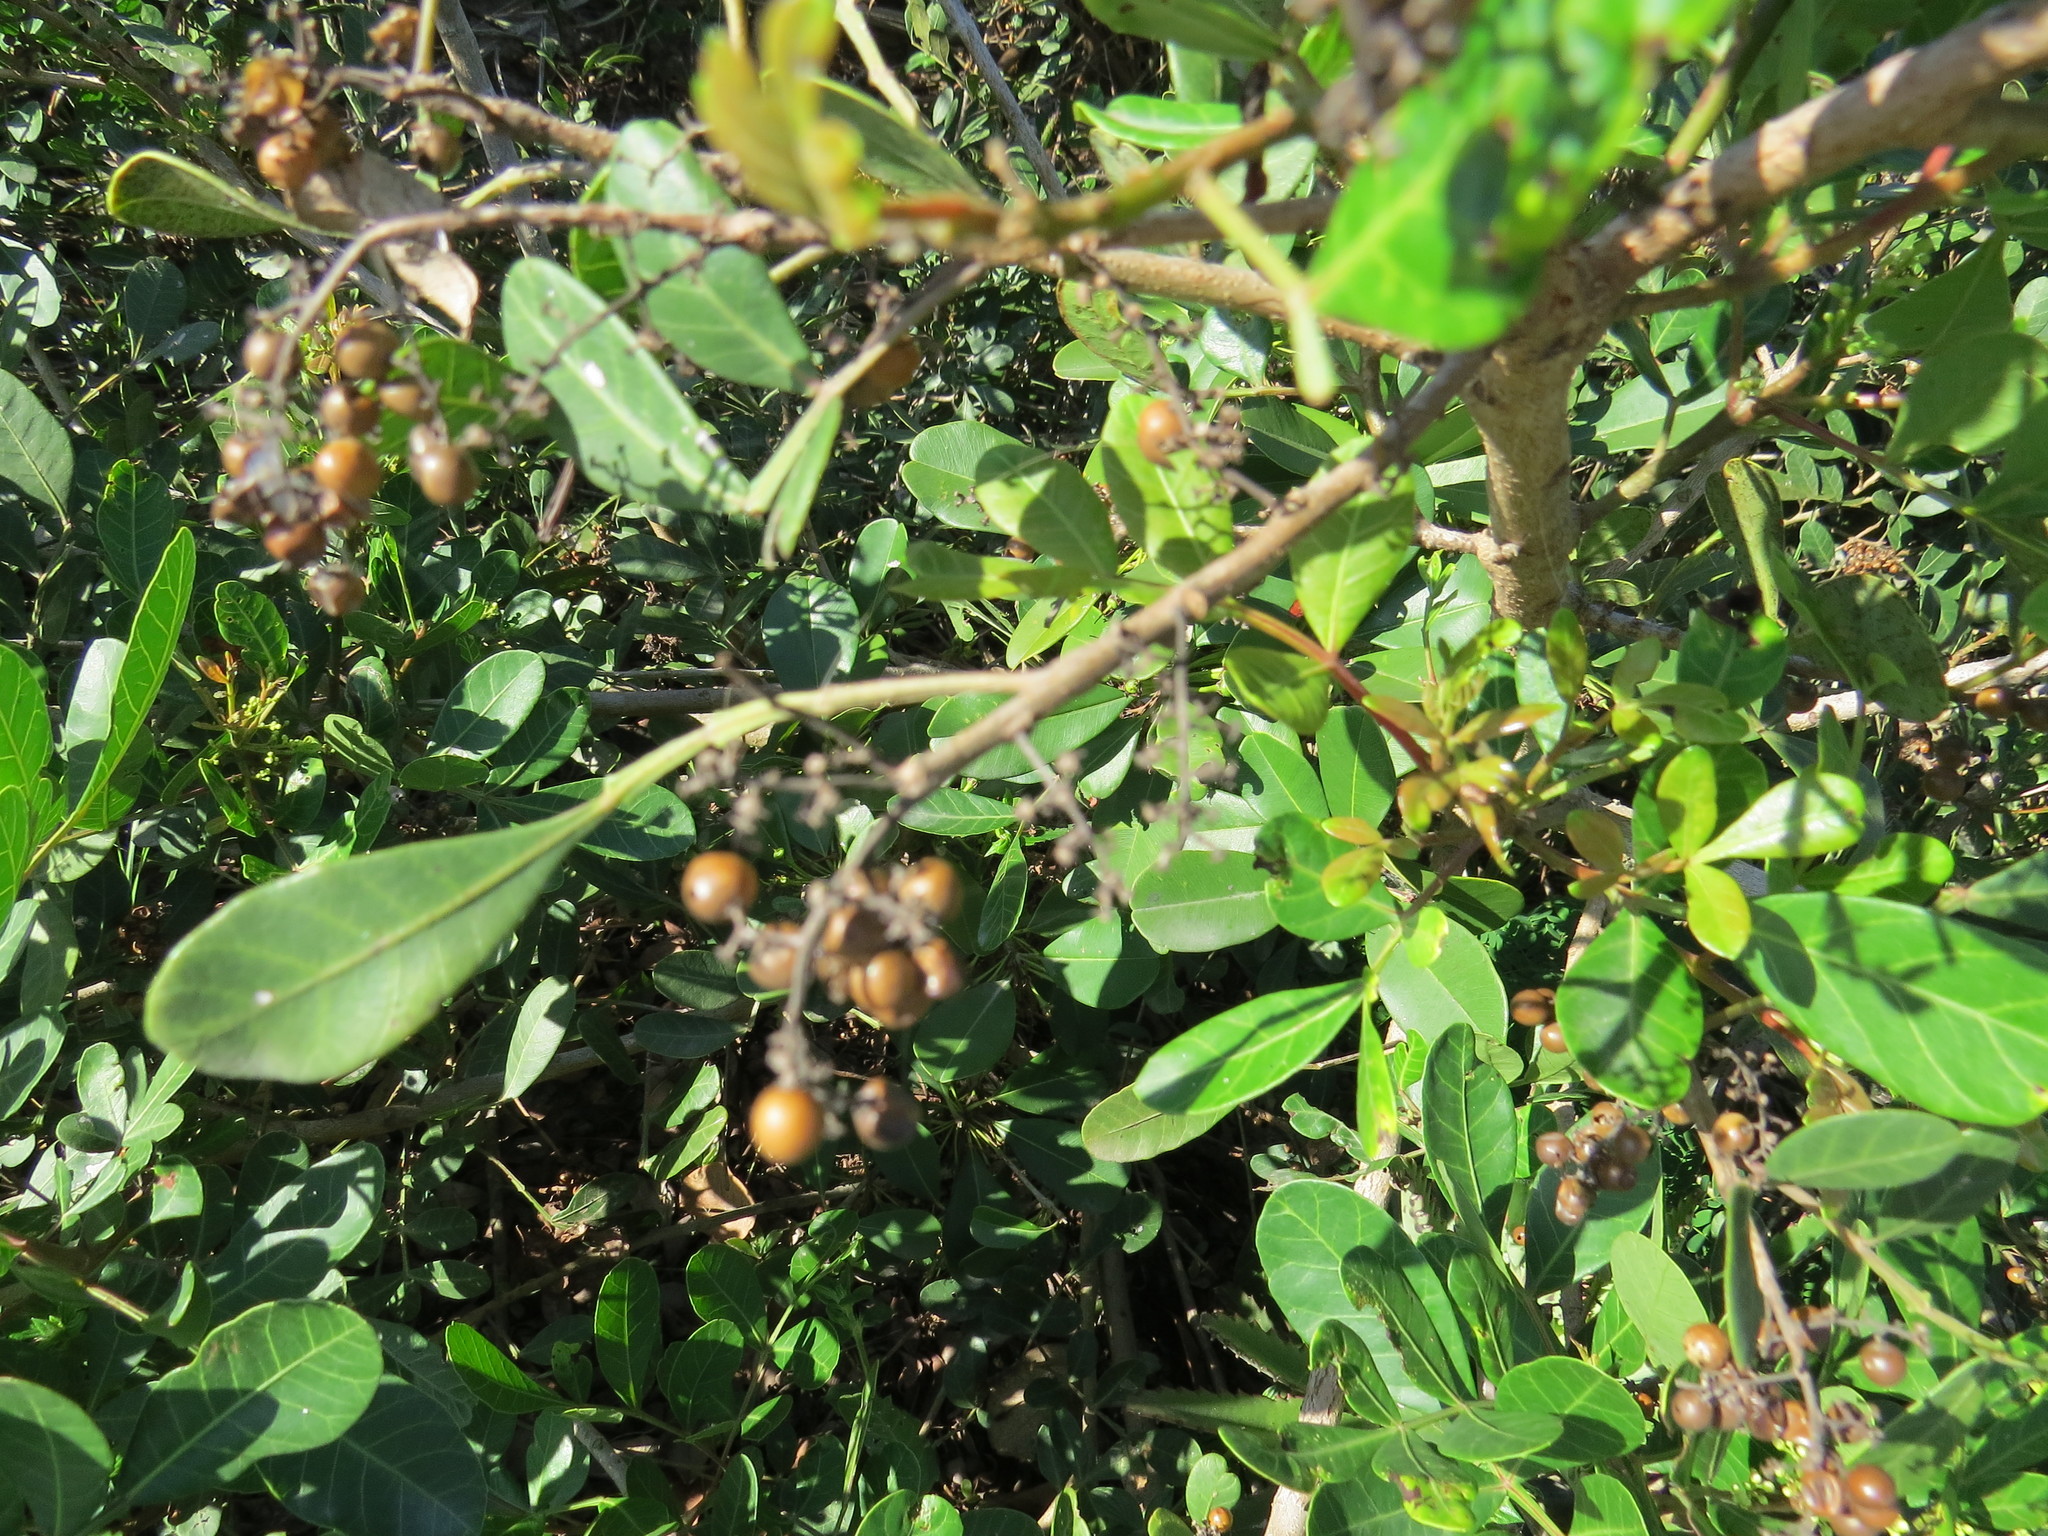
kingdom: Plantae
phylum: Tracheophyta
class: Magnoliopsida
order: Sapindales
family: Anacardiaceae
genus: Schinus
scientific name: Schinus terebinthifolia
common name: Brazilian peppertree
